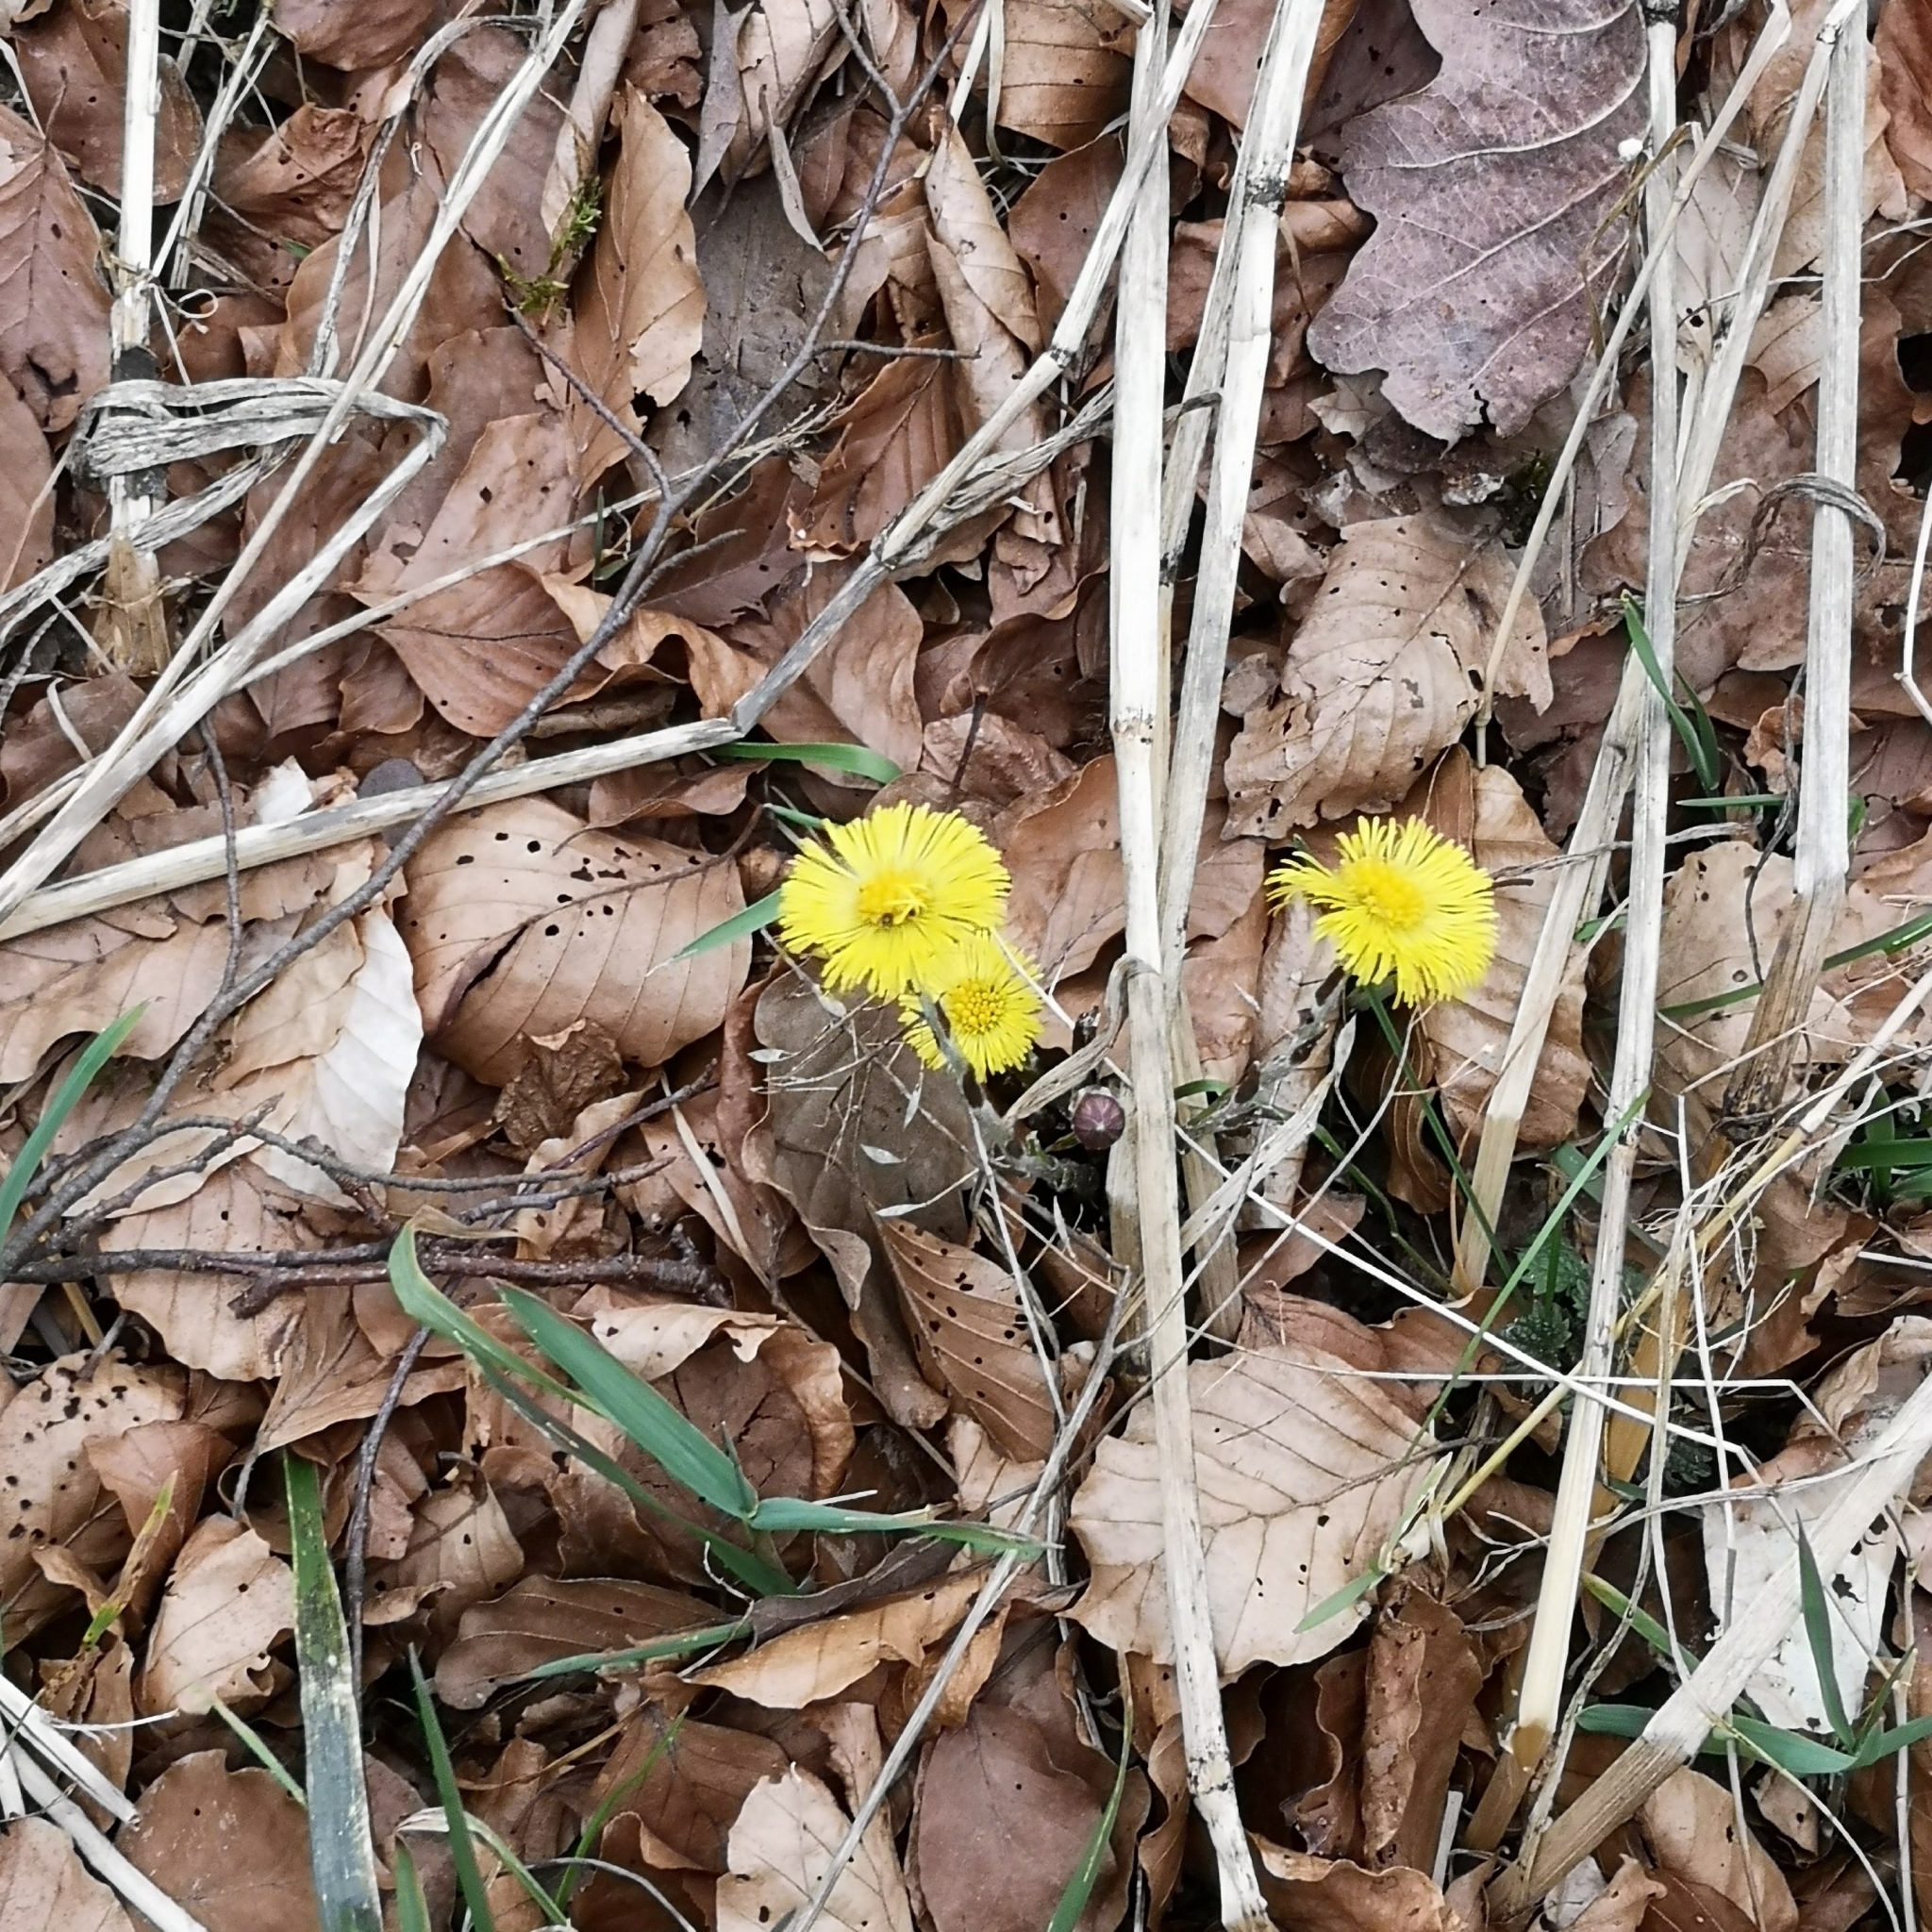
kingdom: Plantae
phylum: Tracheophyta
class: Magnoliopsida
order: Asterales
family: Asteraceae
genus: Tussilago
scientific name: Tussilago farfara
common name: Coltsfoot
